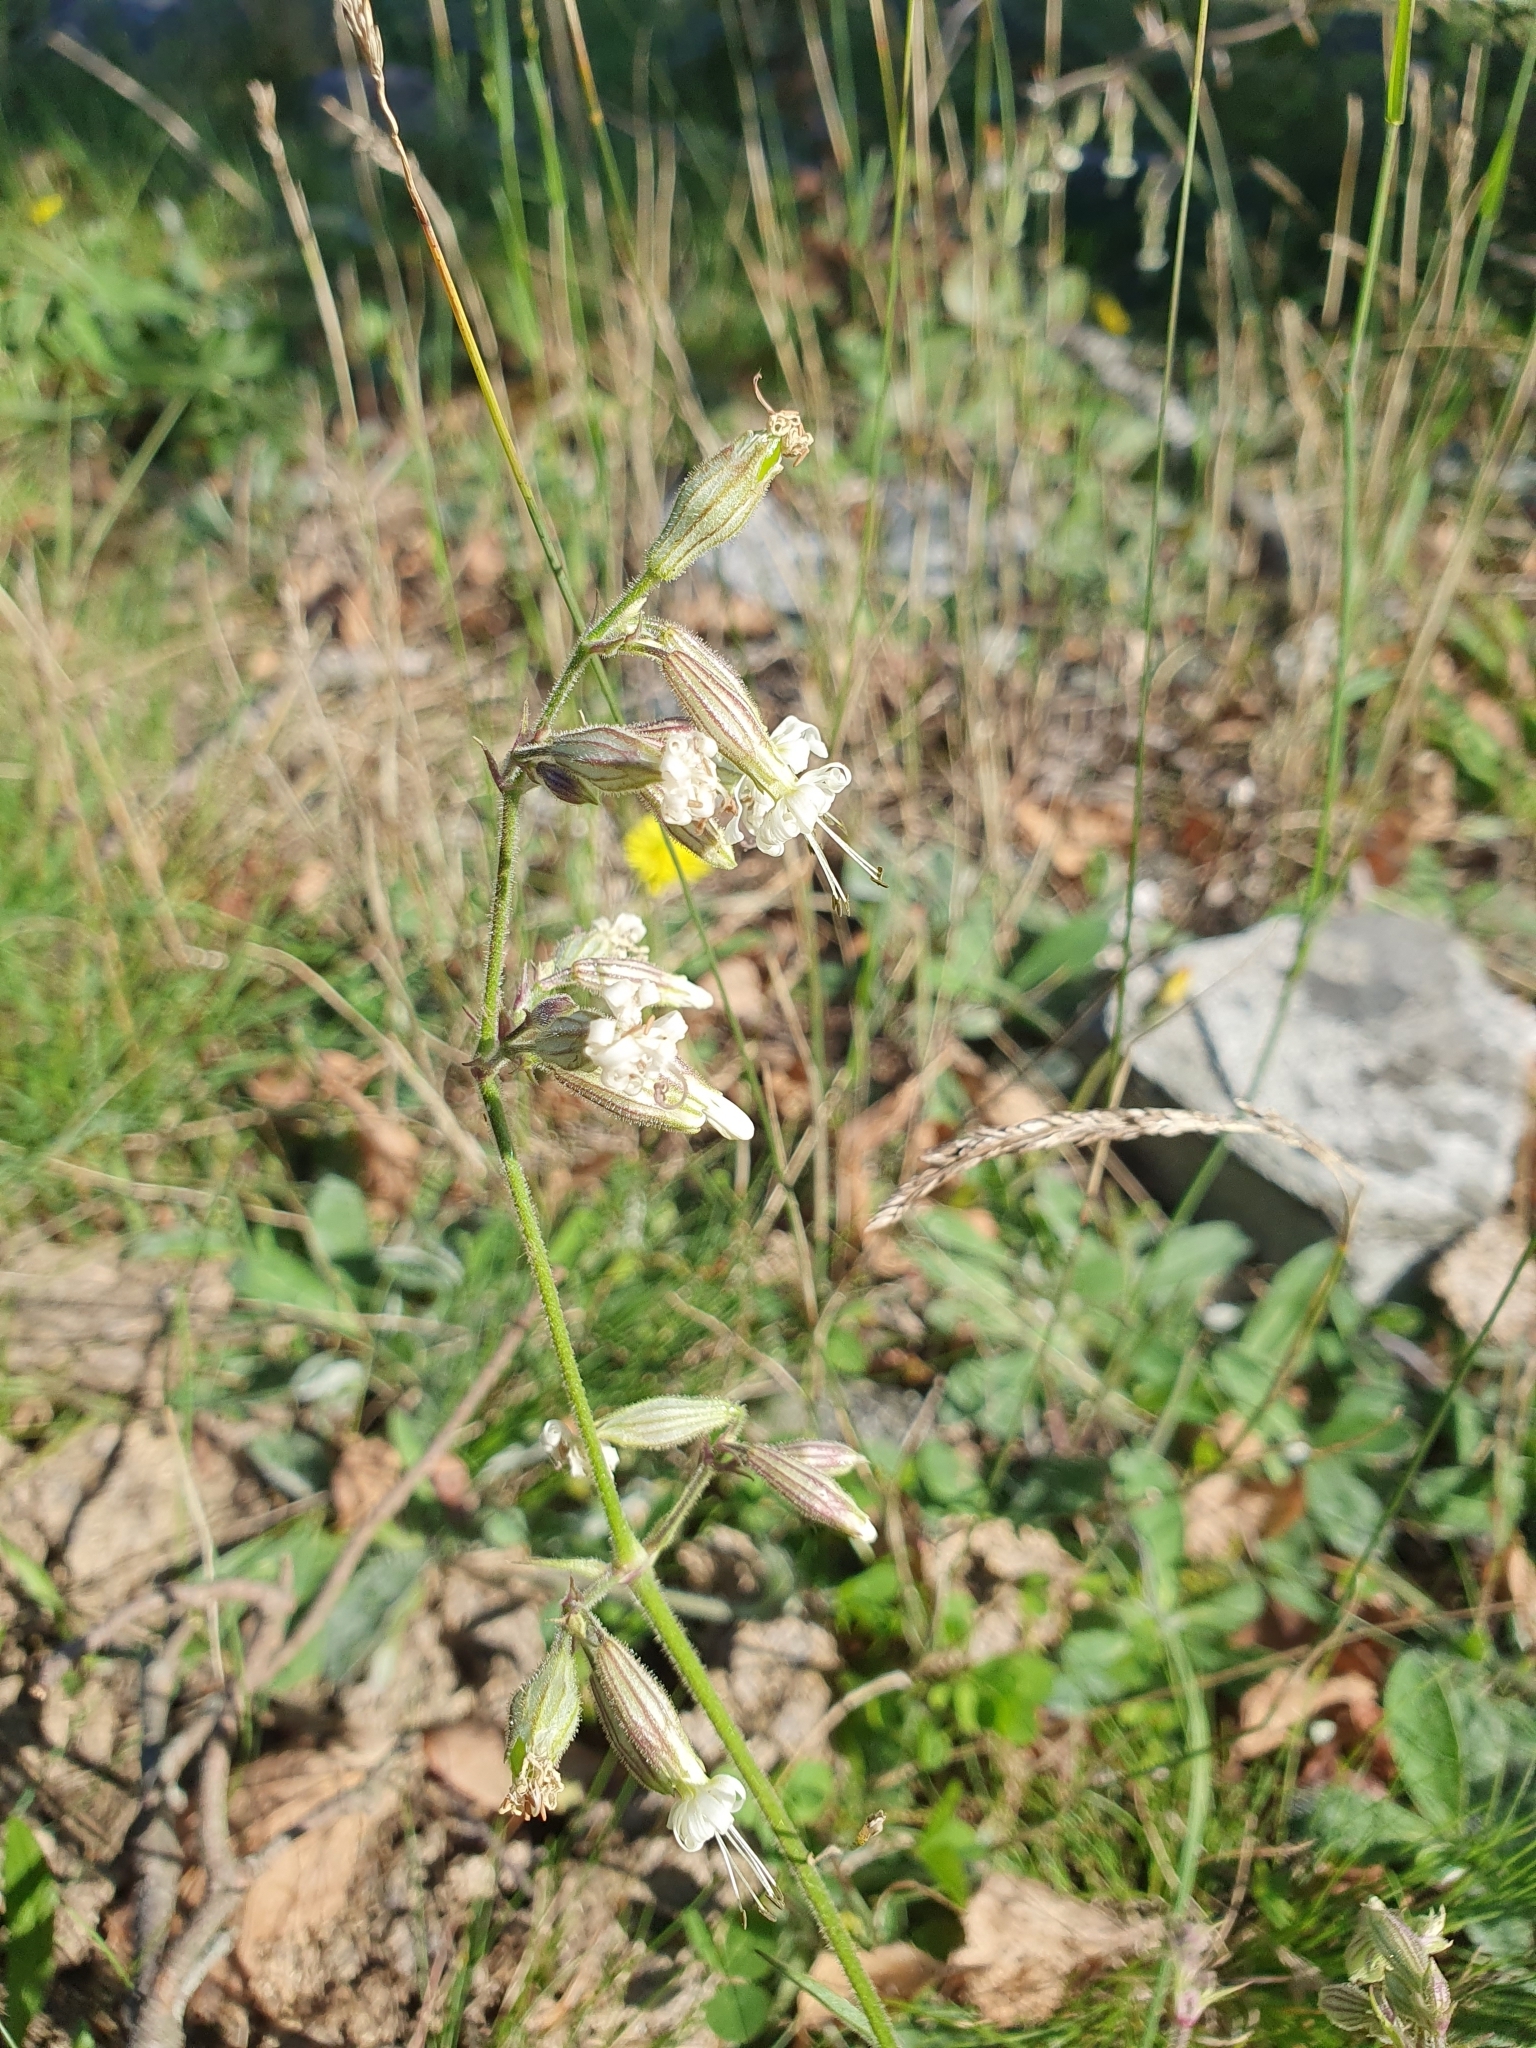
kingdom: Plantae
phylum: Tracheophyta
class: Magnoliopsida
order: Caryophyllales
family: Caryophyllaceae
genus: Silene
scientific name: Silene nutans
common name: Nottingham catchfly
